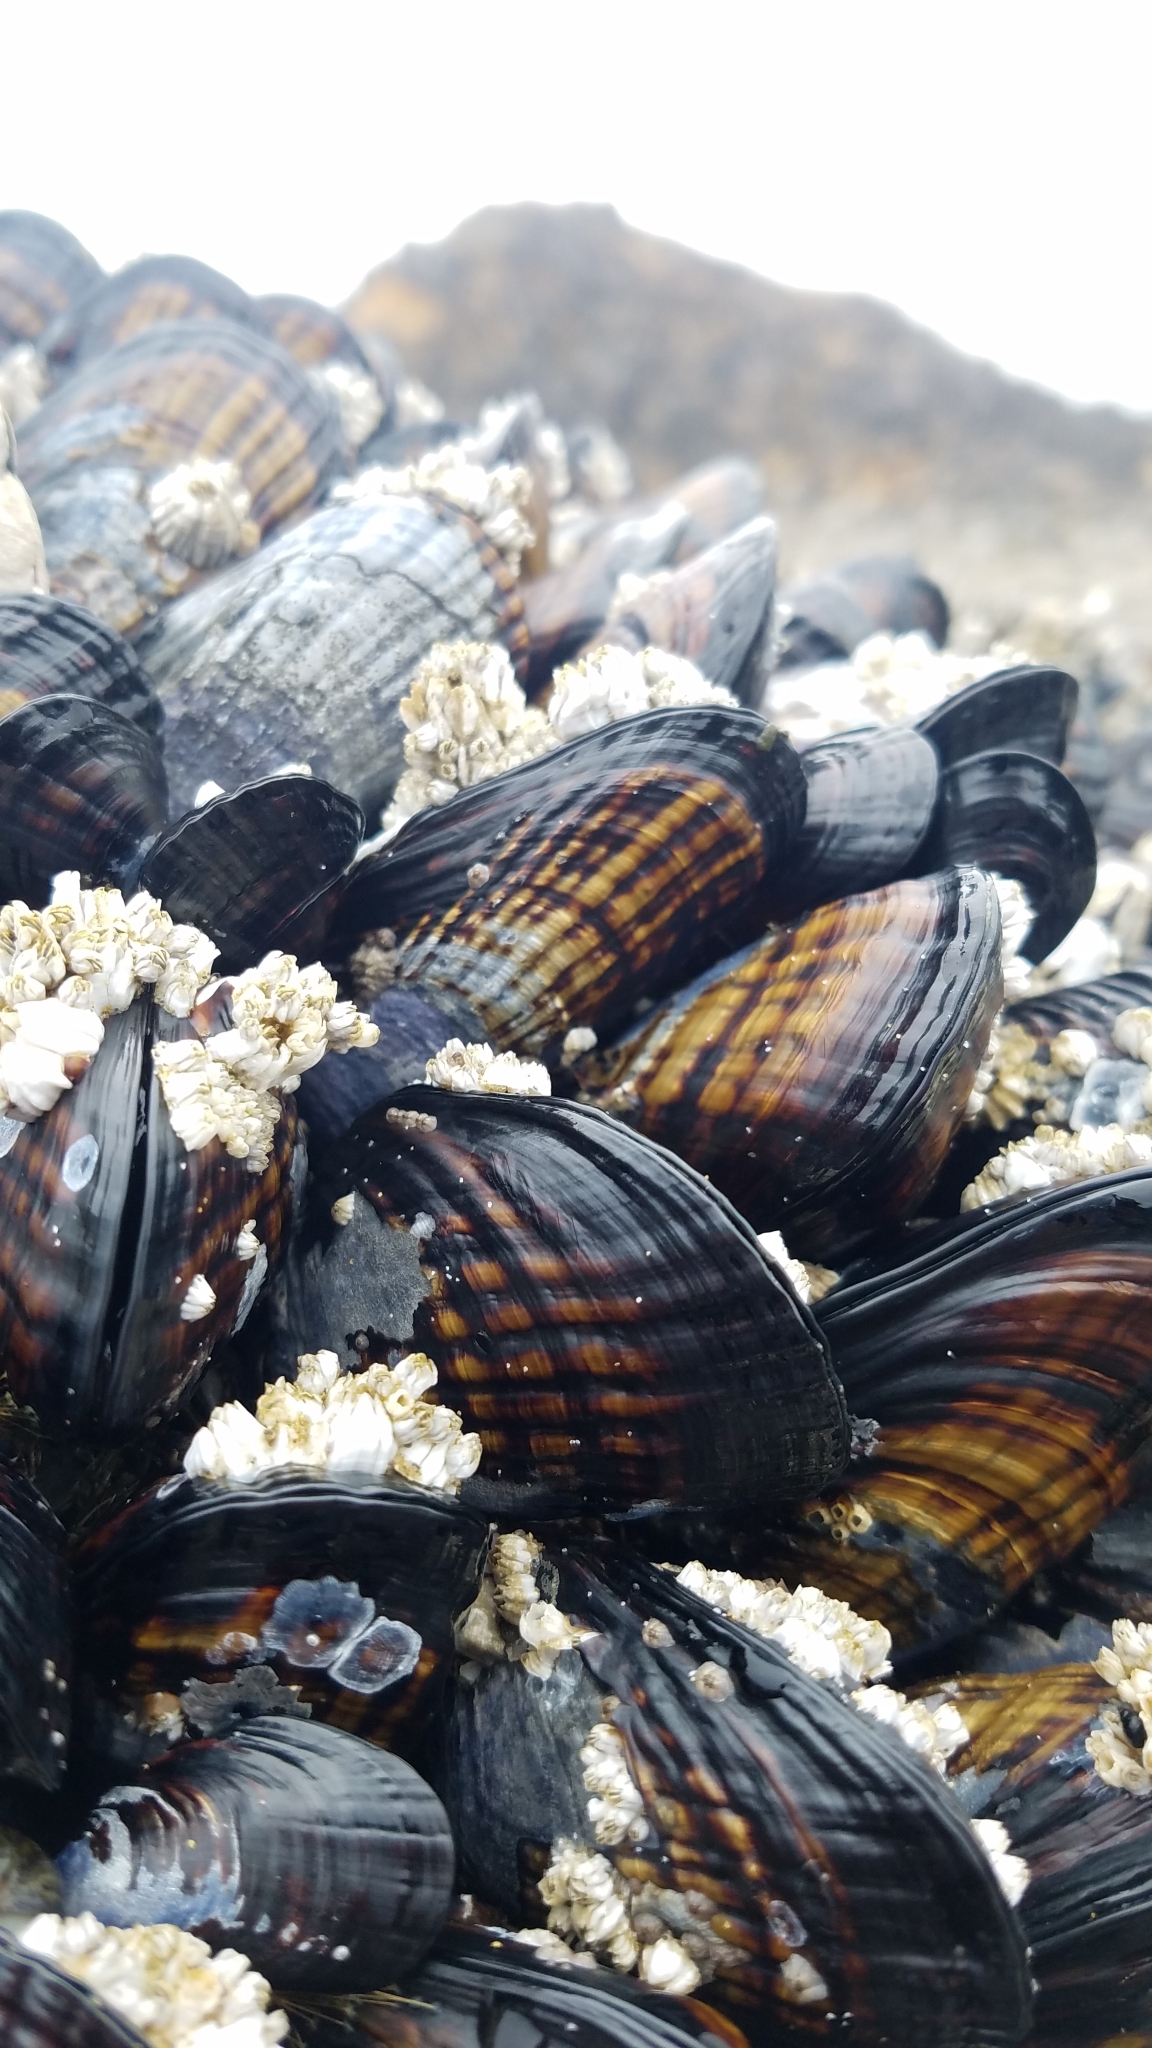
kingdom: Animalia
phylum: Mollusca
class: Bivalvia
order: Mytilida
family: Mytilidae
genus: Mytilus
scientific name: Mytilus californianus
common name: California mussel
